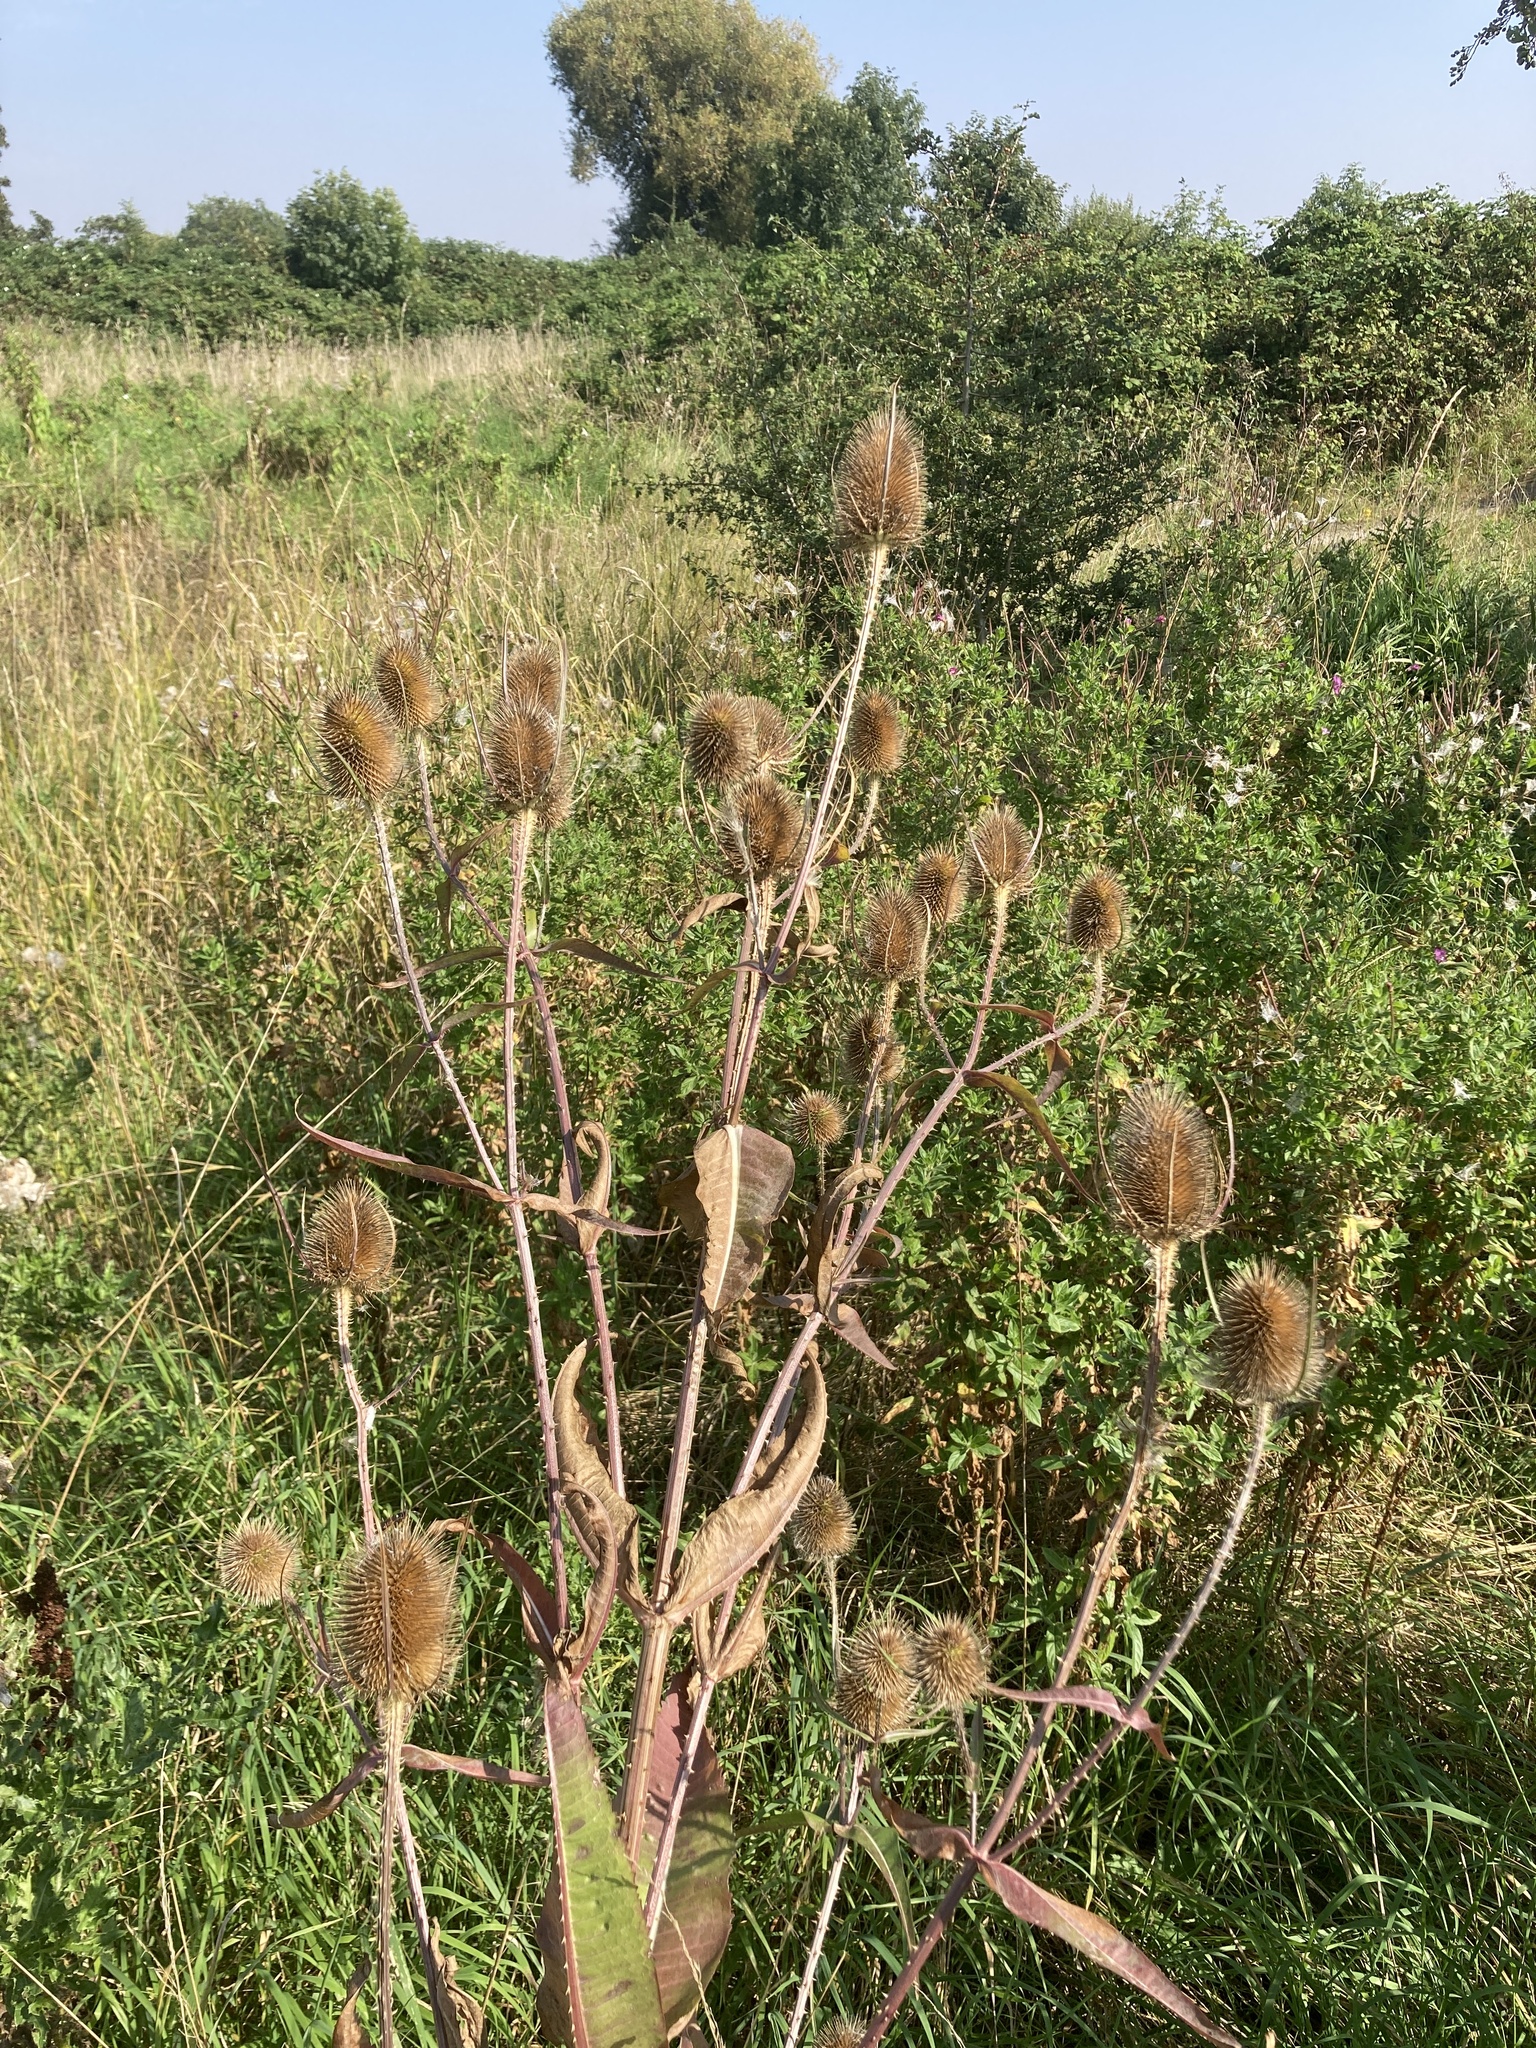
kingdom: Plantae
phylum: Tracheophyta
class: Magnoliopsida
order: Dipsacales
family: Caprifoliaceae
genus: Dipsacus
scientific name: Dipsacus fullonum
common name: Teasel
